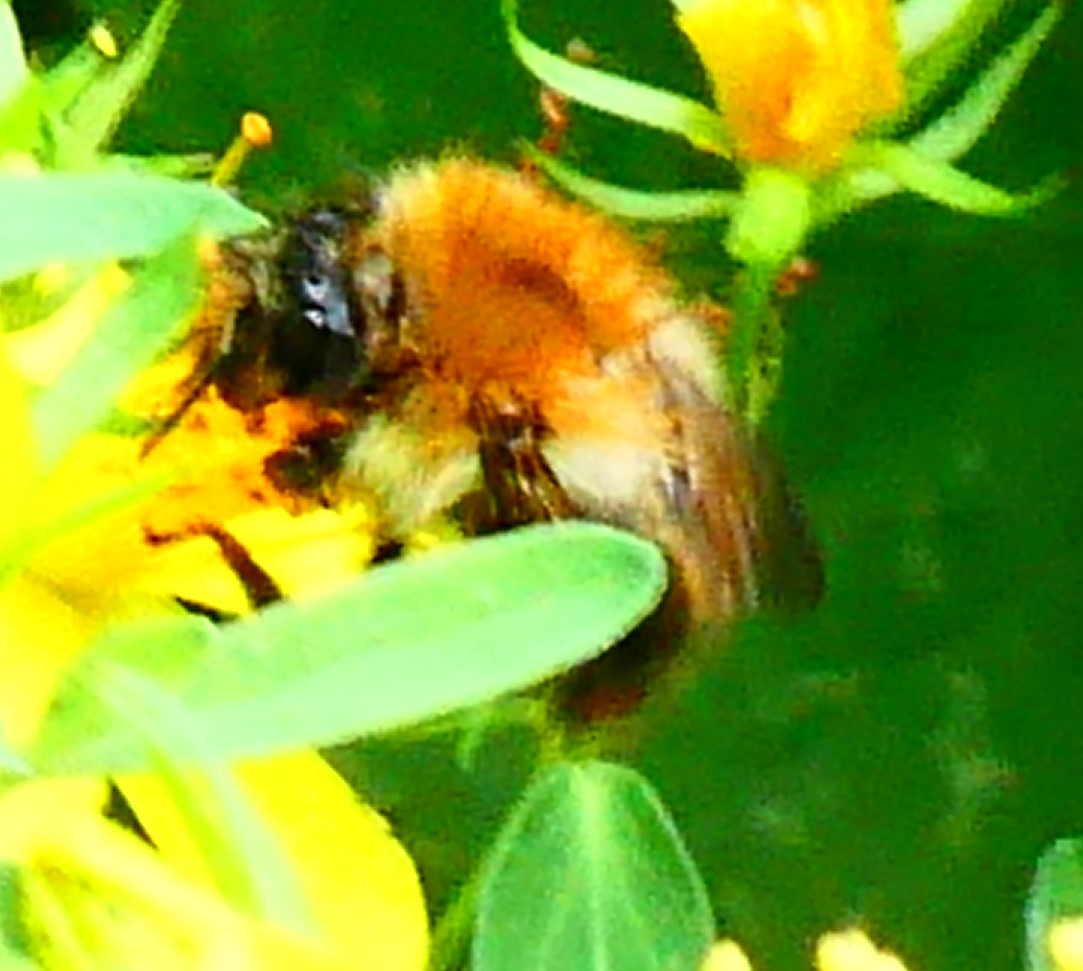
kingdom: Animalia
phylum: Arthropoda
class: Insecta
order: Hymenoptera
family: Apidae
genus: Bombus
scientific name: Bombus pascuorum
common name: Common carder bee
